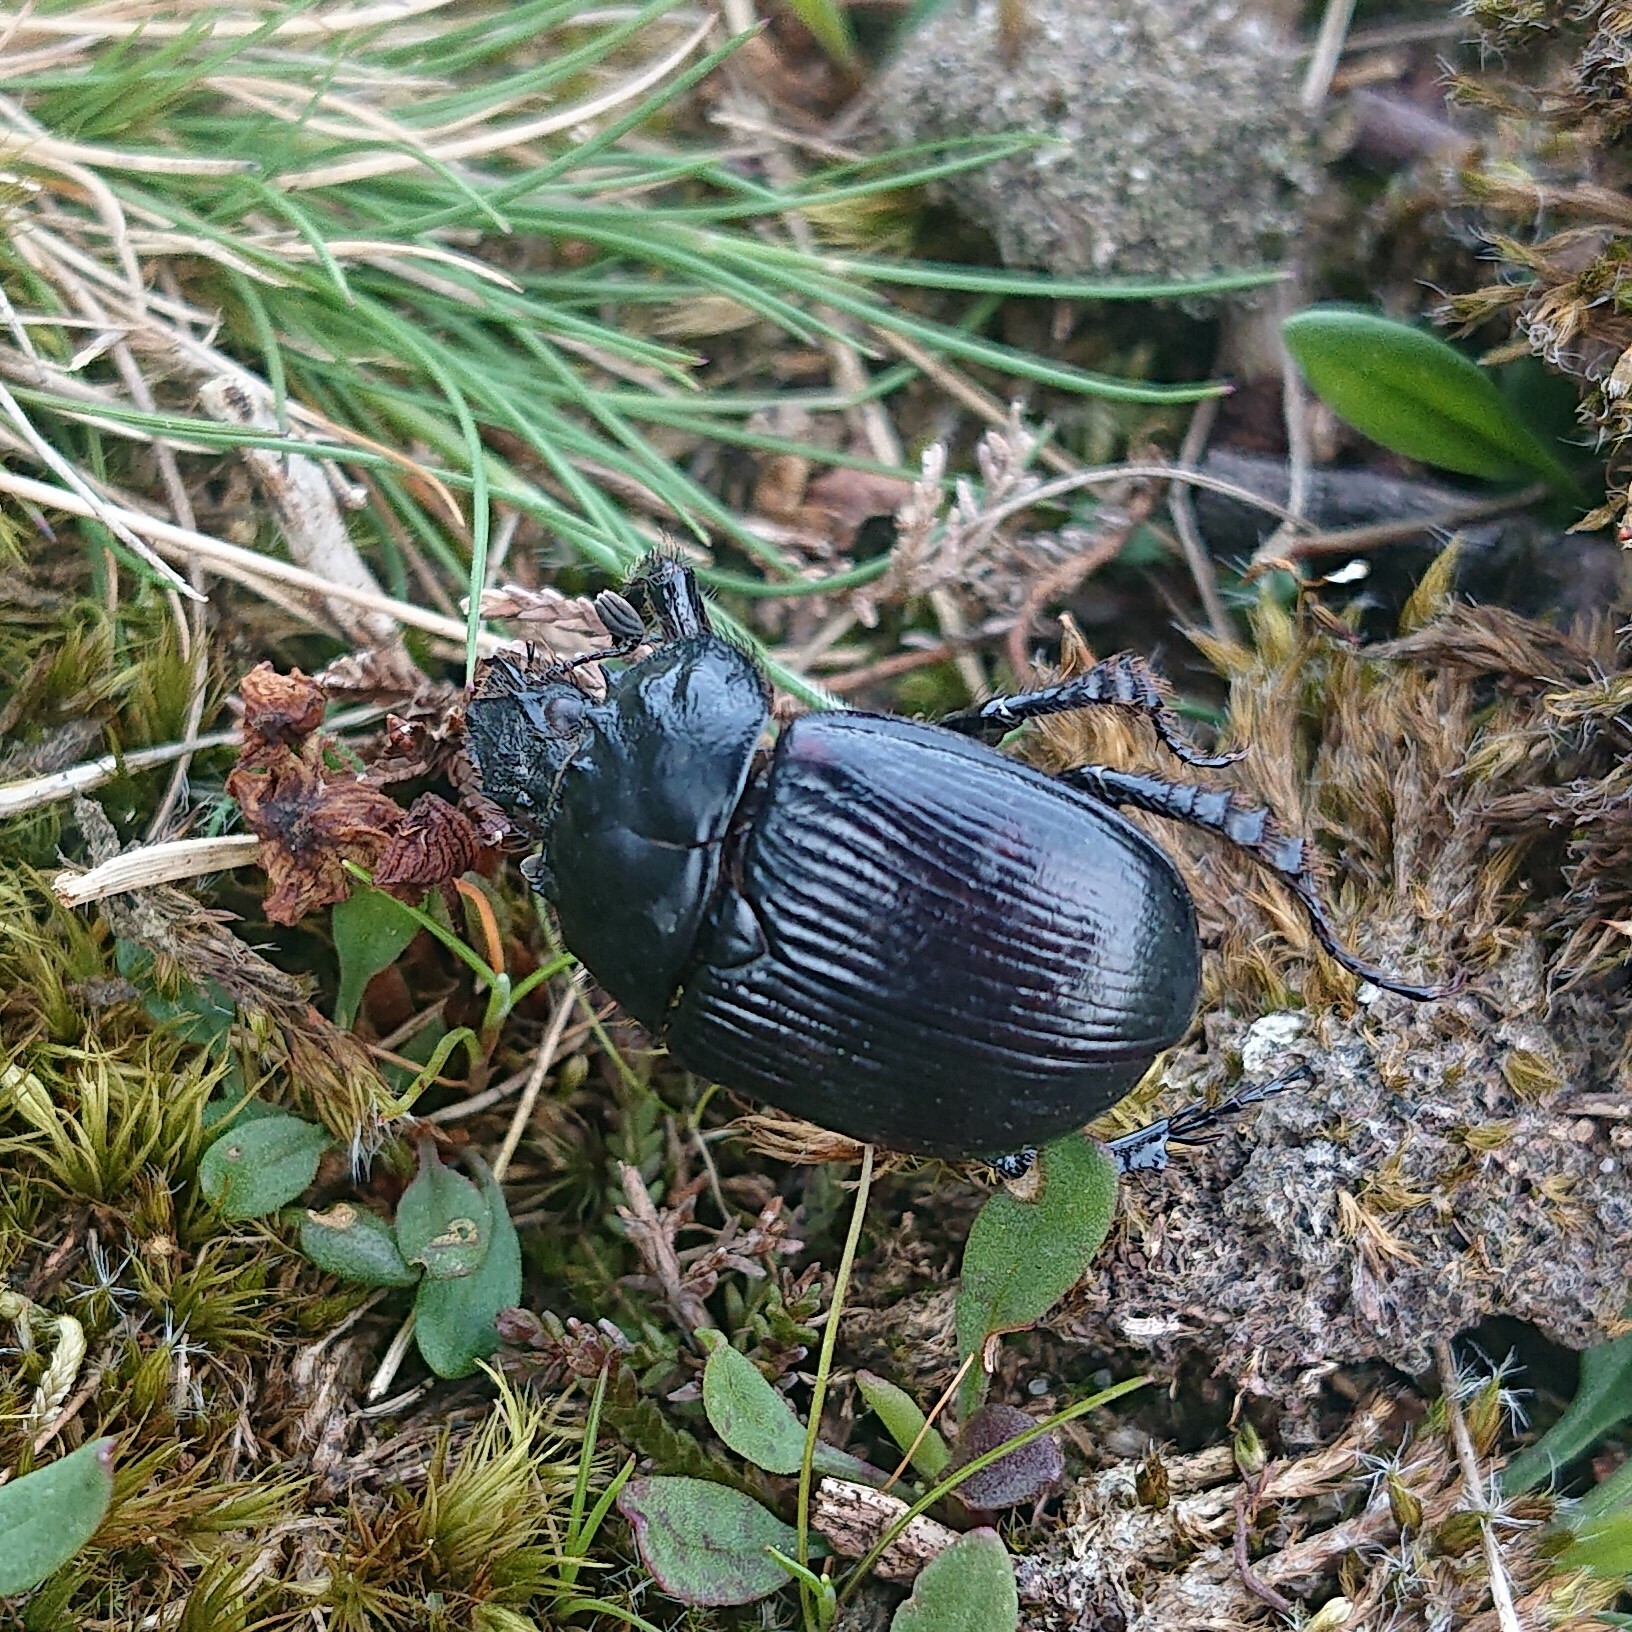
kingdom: Animalia
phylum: Arthropoda
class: Insecta
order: Coleoptera
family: Geotrupidae
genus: Typhaeus
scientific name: Typhaeus typhoeus
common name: Minotaur beetle
